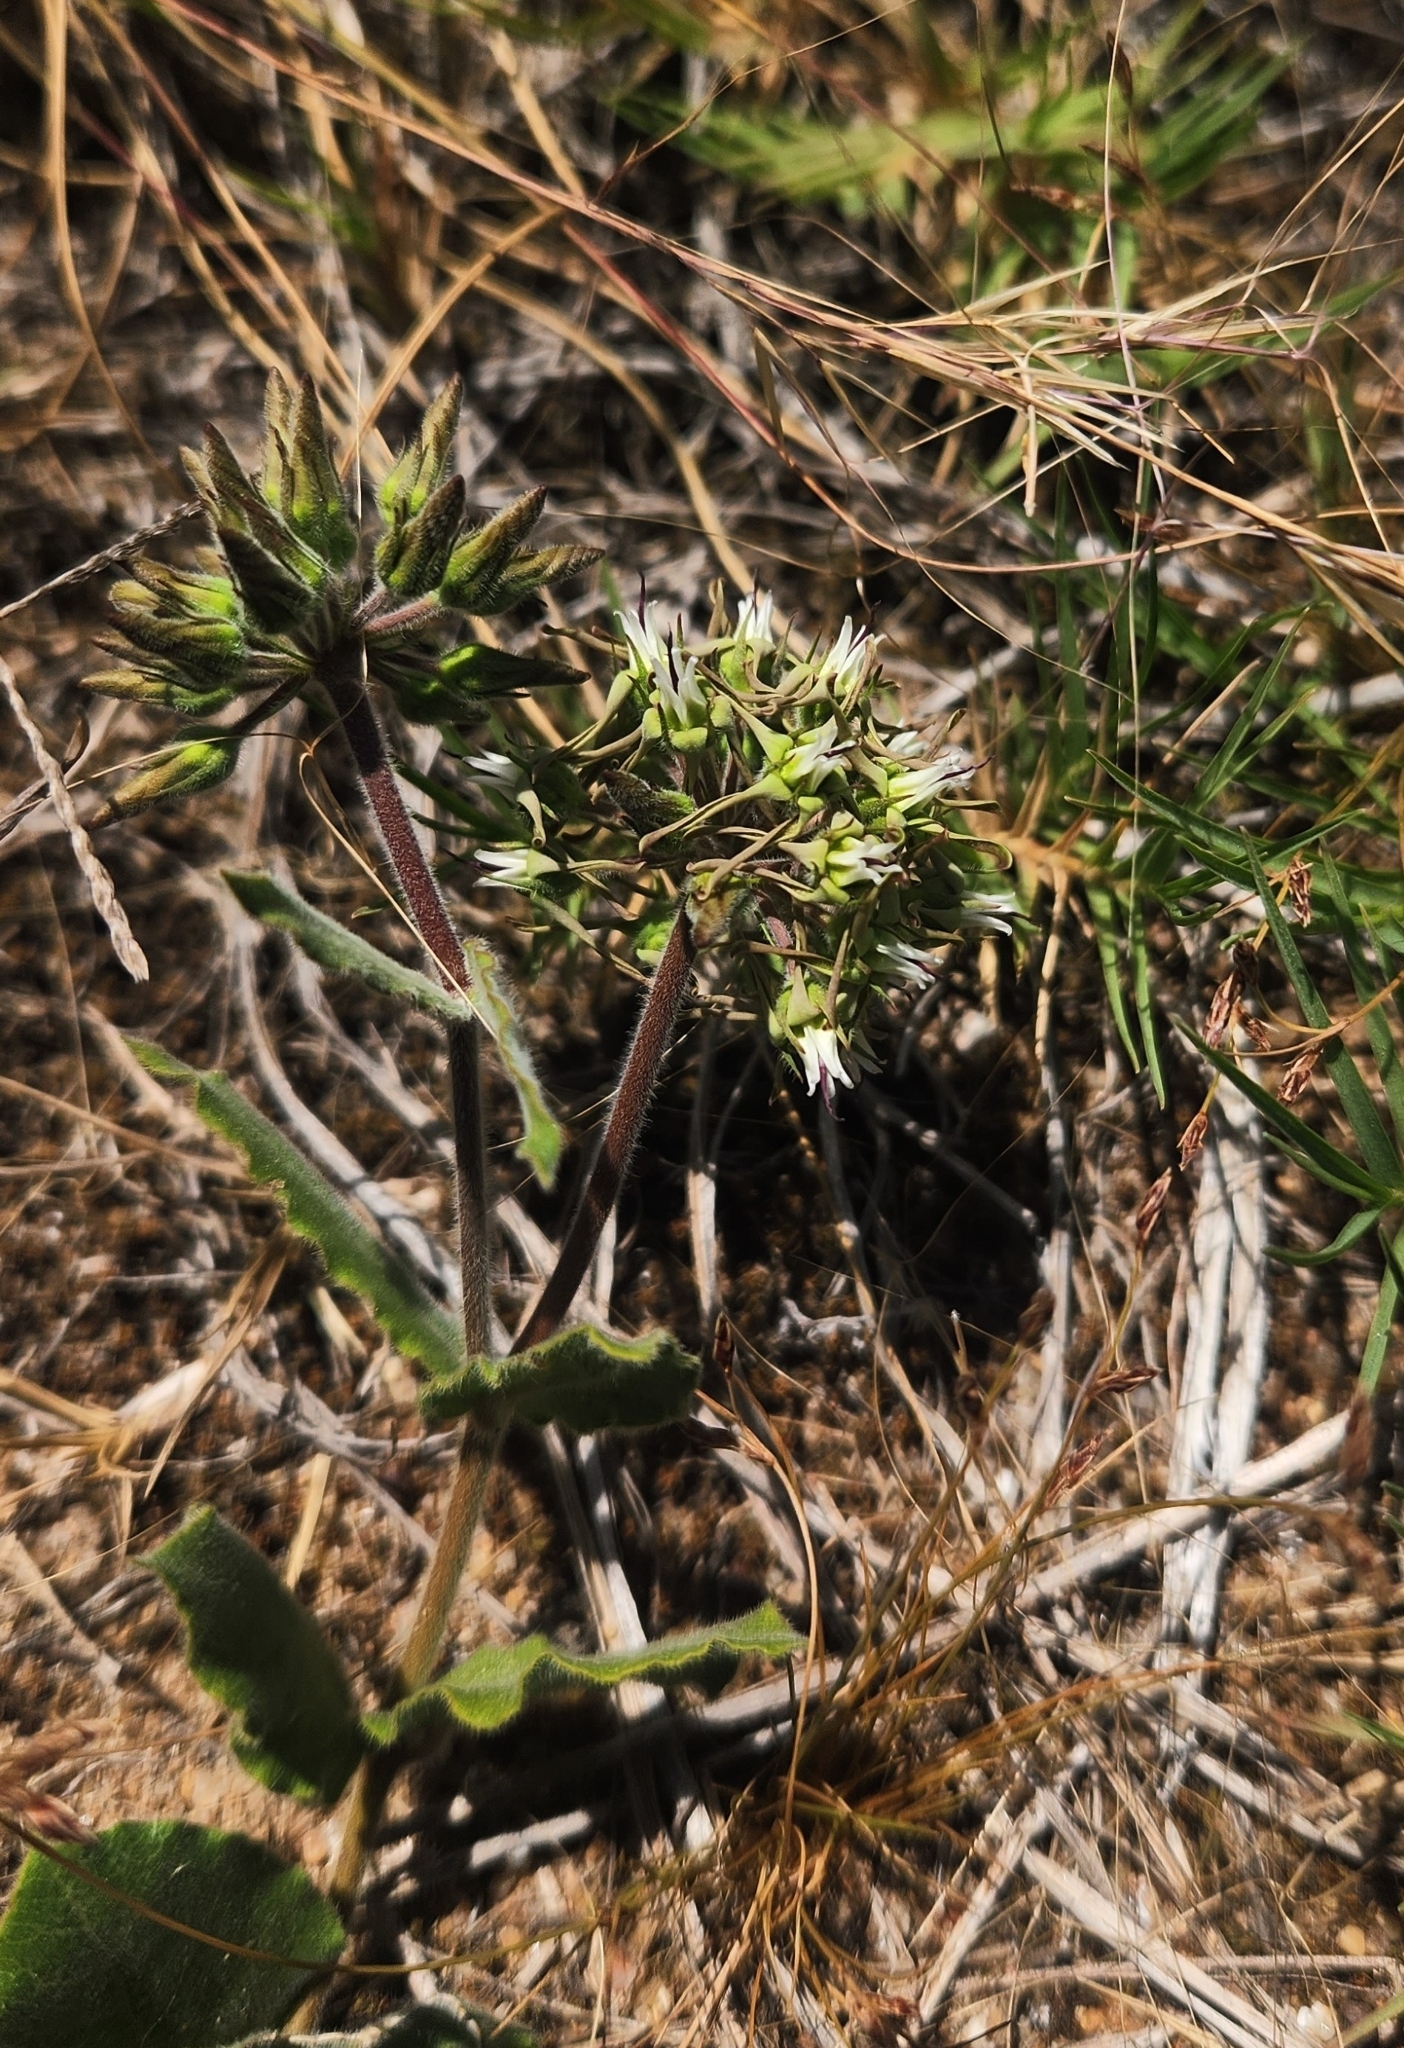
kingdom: Plantae
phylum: Tracheophyta
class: Magnoliopsida
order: Gentianales
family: Apocynaceae
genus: Oxypetalum
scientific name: Oxypetalum crispum
